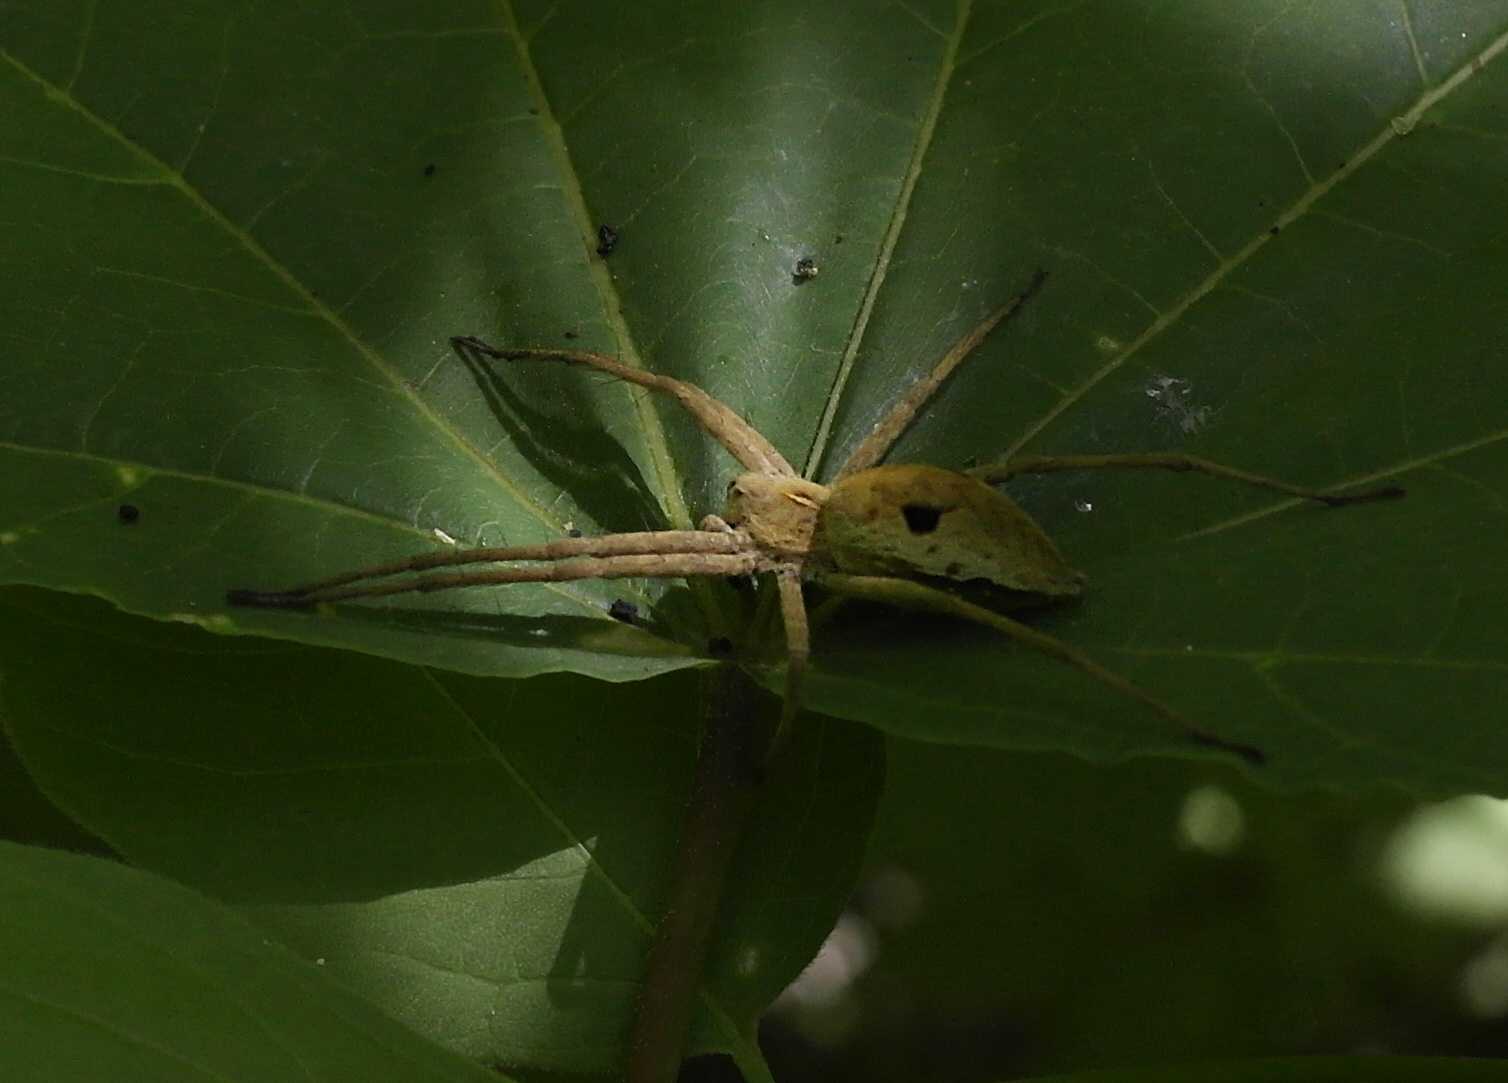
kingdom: Animalia
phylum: Arthropoda
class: Arachnida
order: Araneae
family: Pisauridae
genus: Pisaura
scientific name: Pisaura
